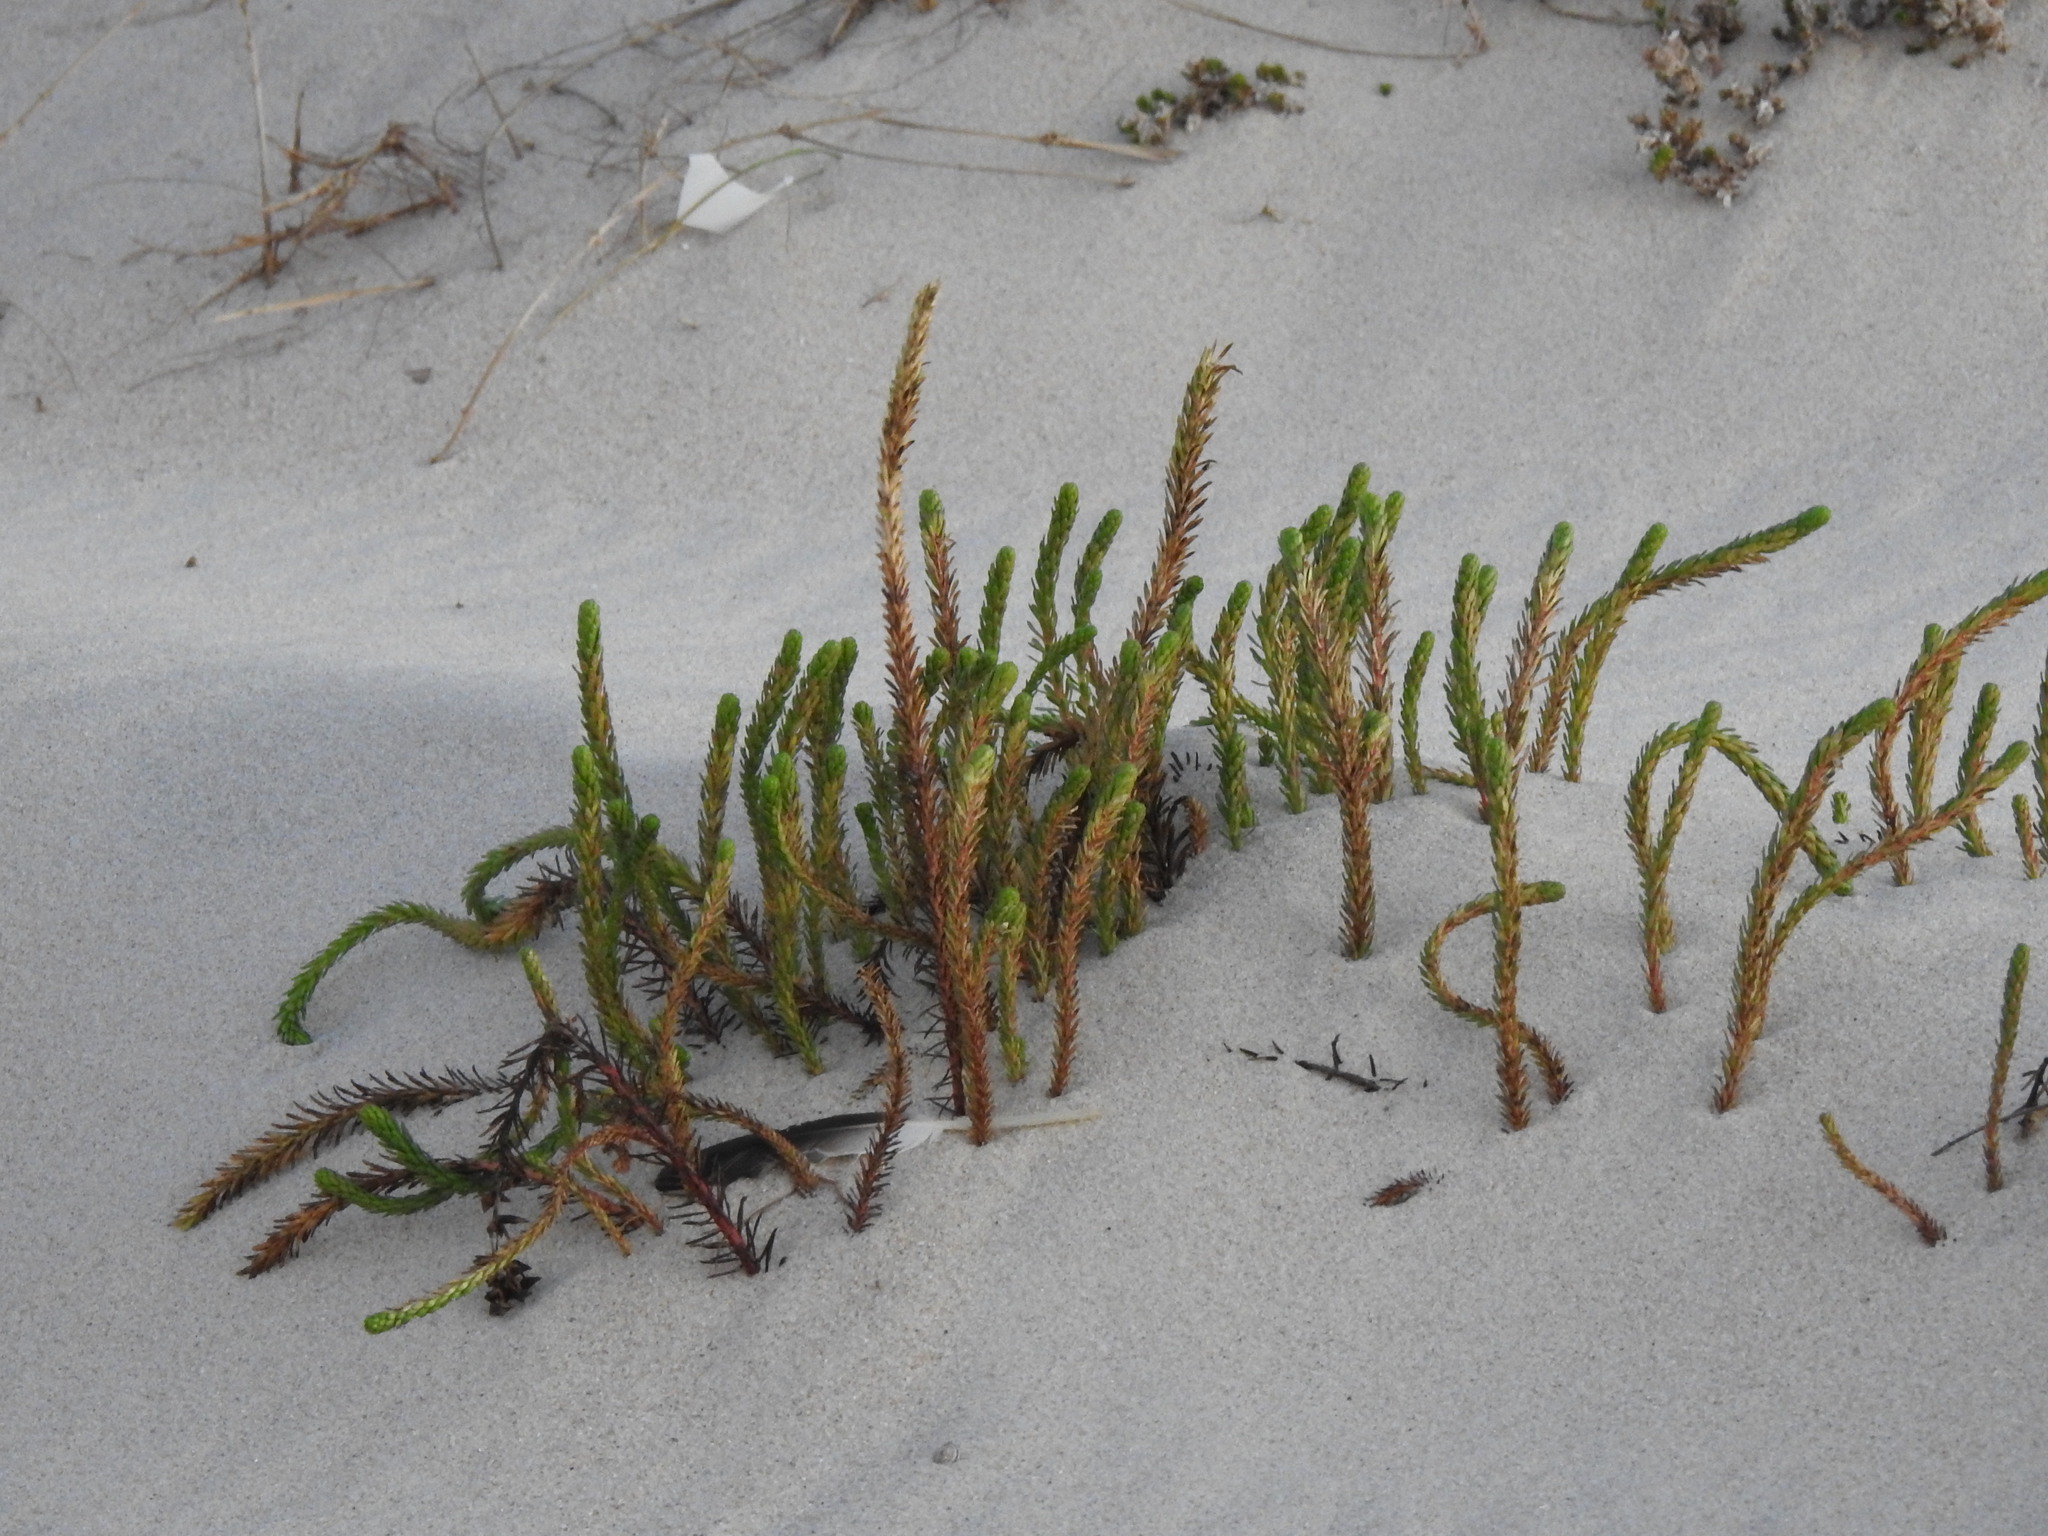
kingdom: Plantae
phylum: Tracheophyta
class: Magnoliopsida
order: Malpighiales
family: Euphorbiaceae
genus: Euphorbia
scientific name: Euphorbia paralias
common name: Sea spurge
